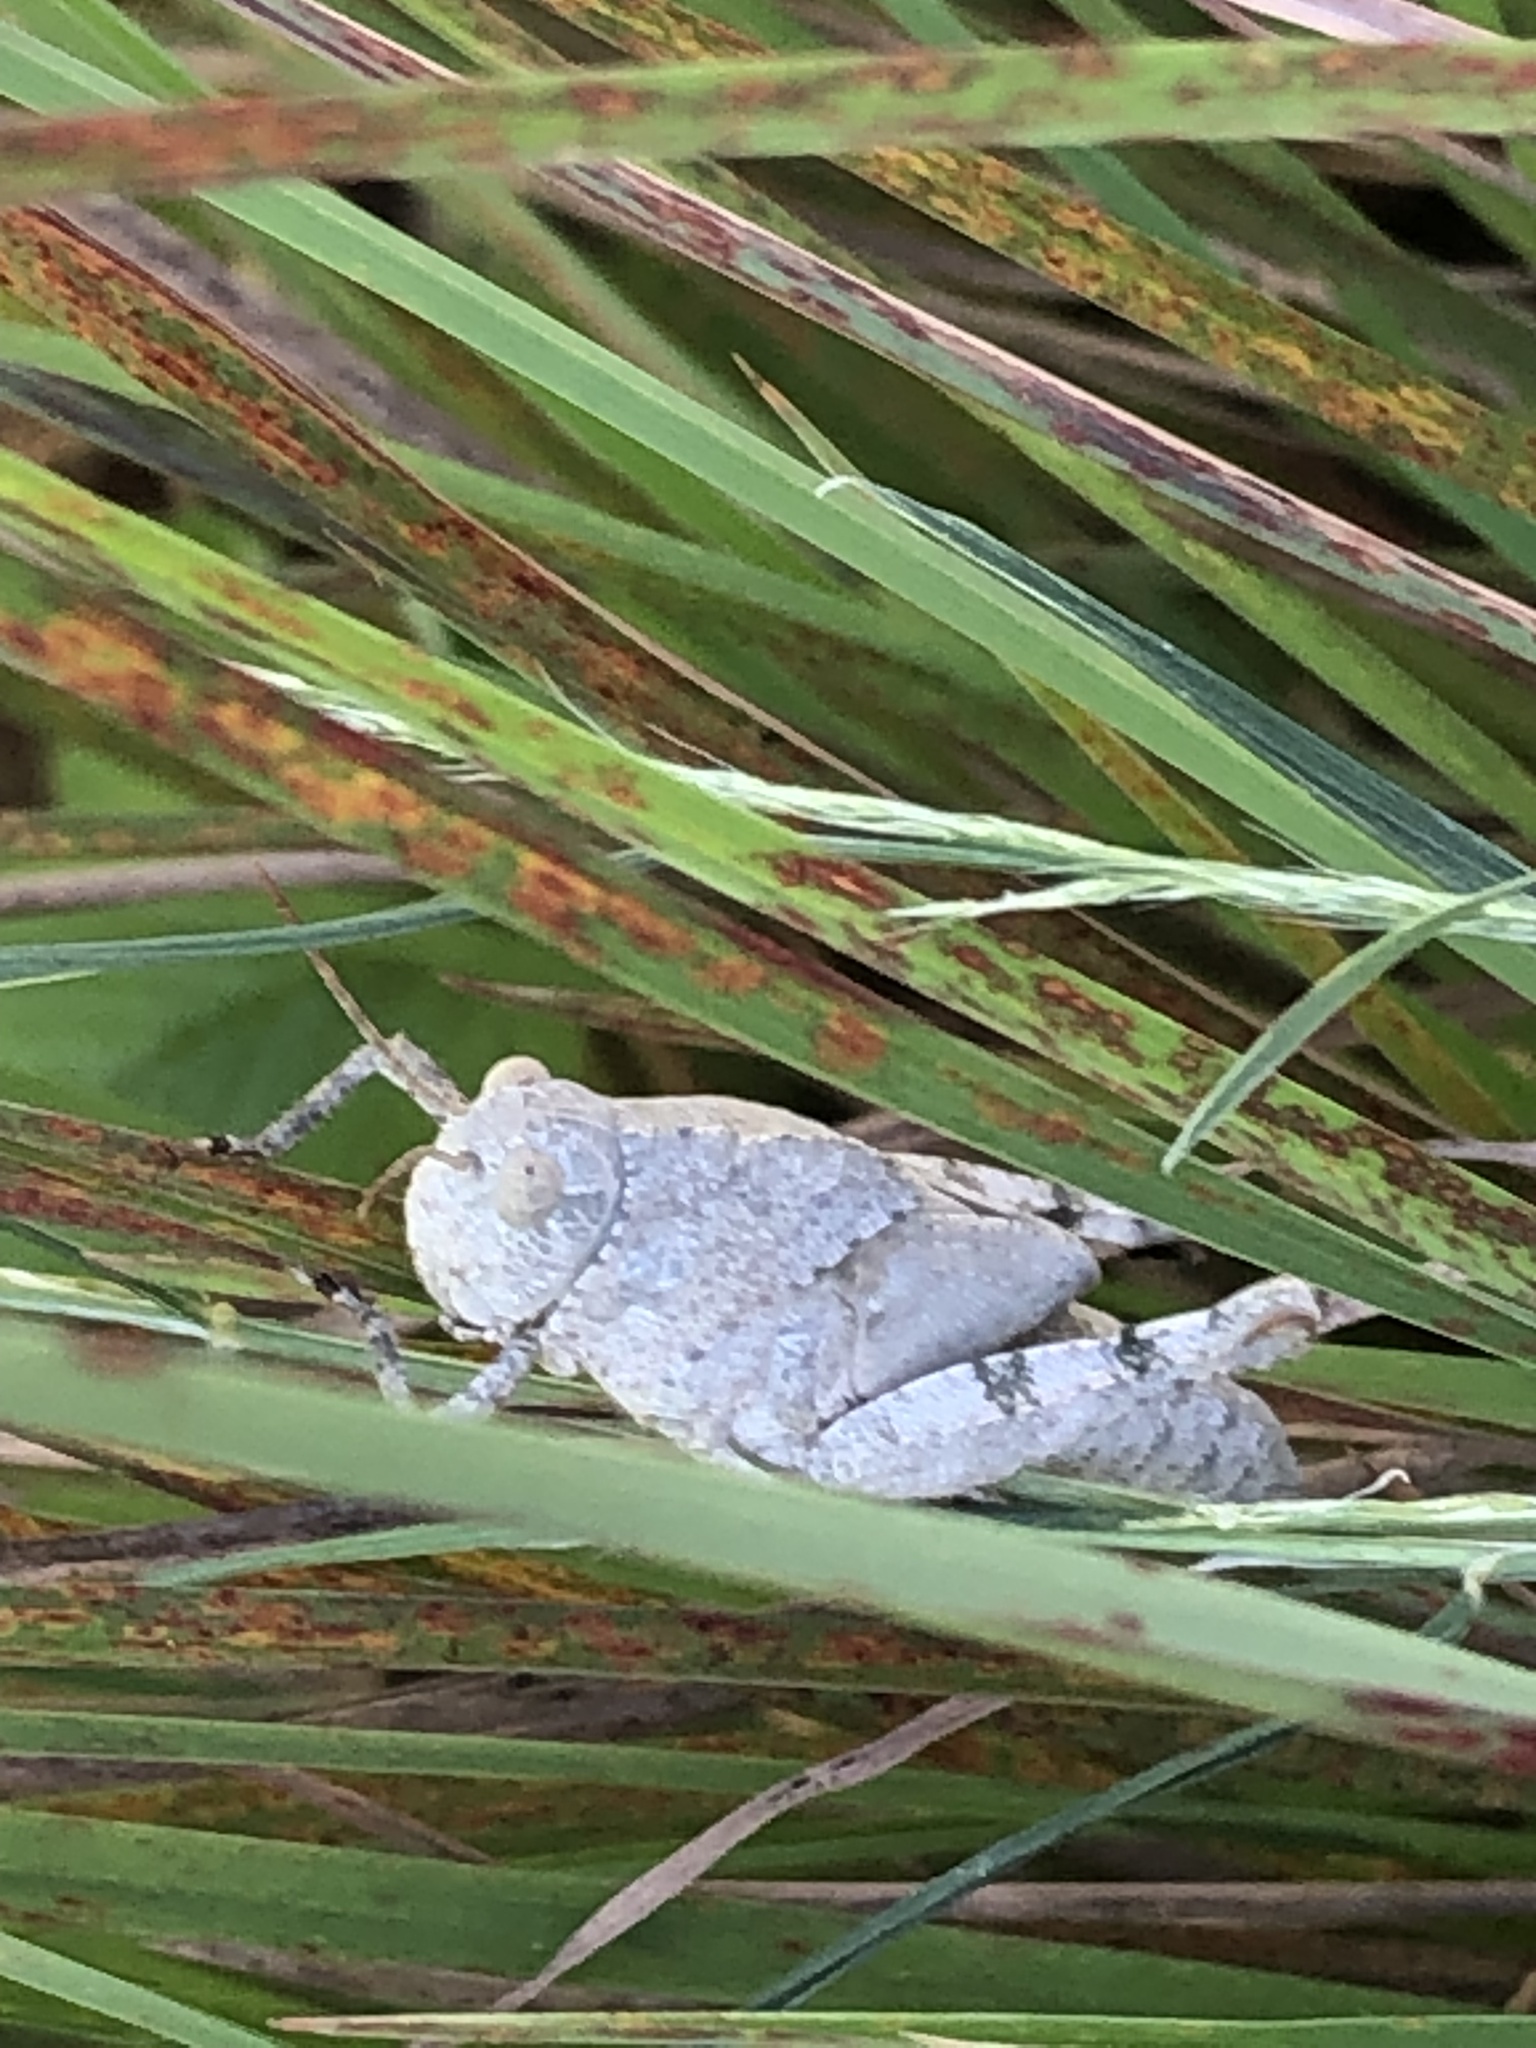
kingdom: Animalia
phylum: Arthropoda
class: Insecta
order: Orthoptera
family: Acrididae
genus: Dissosteira
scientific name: Dissosteira carolina
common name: Carolina grasshopper
